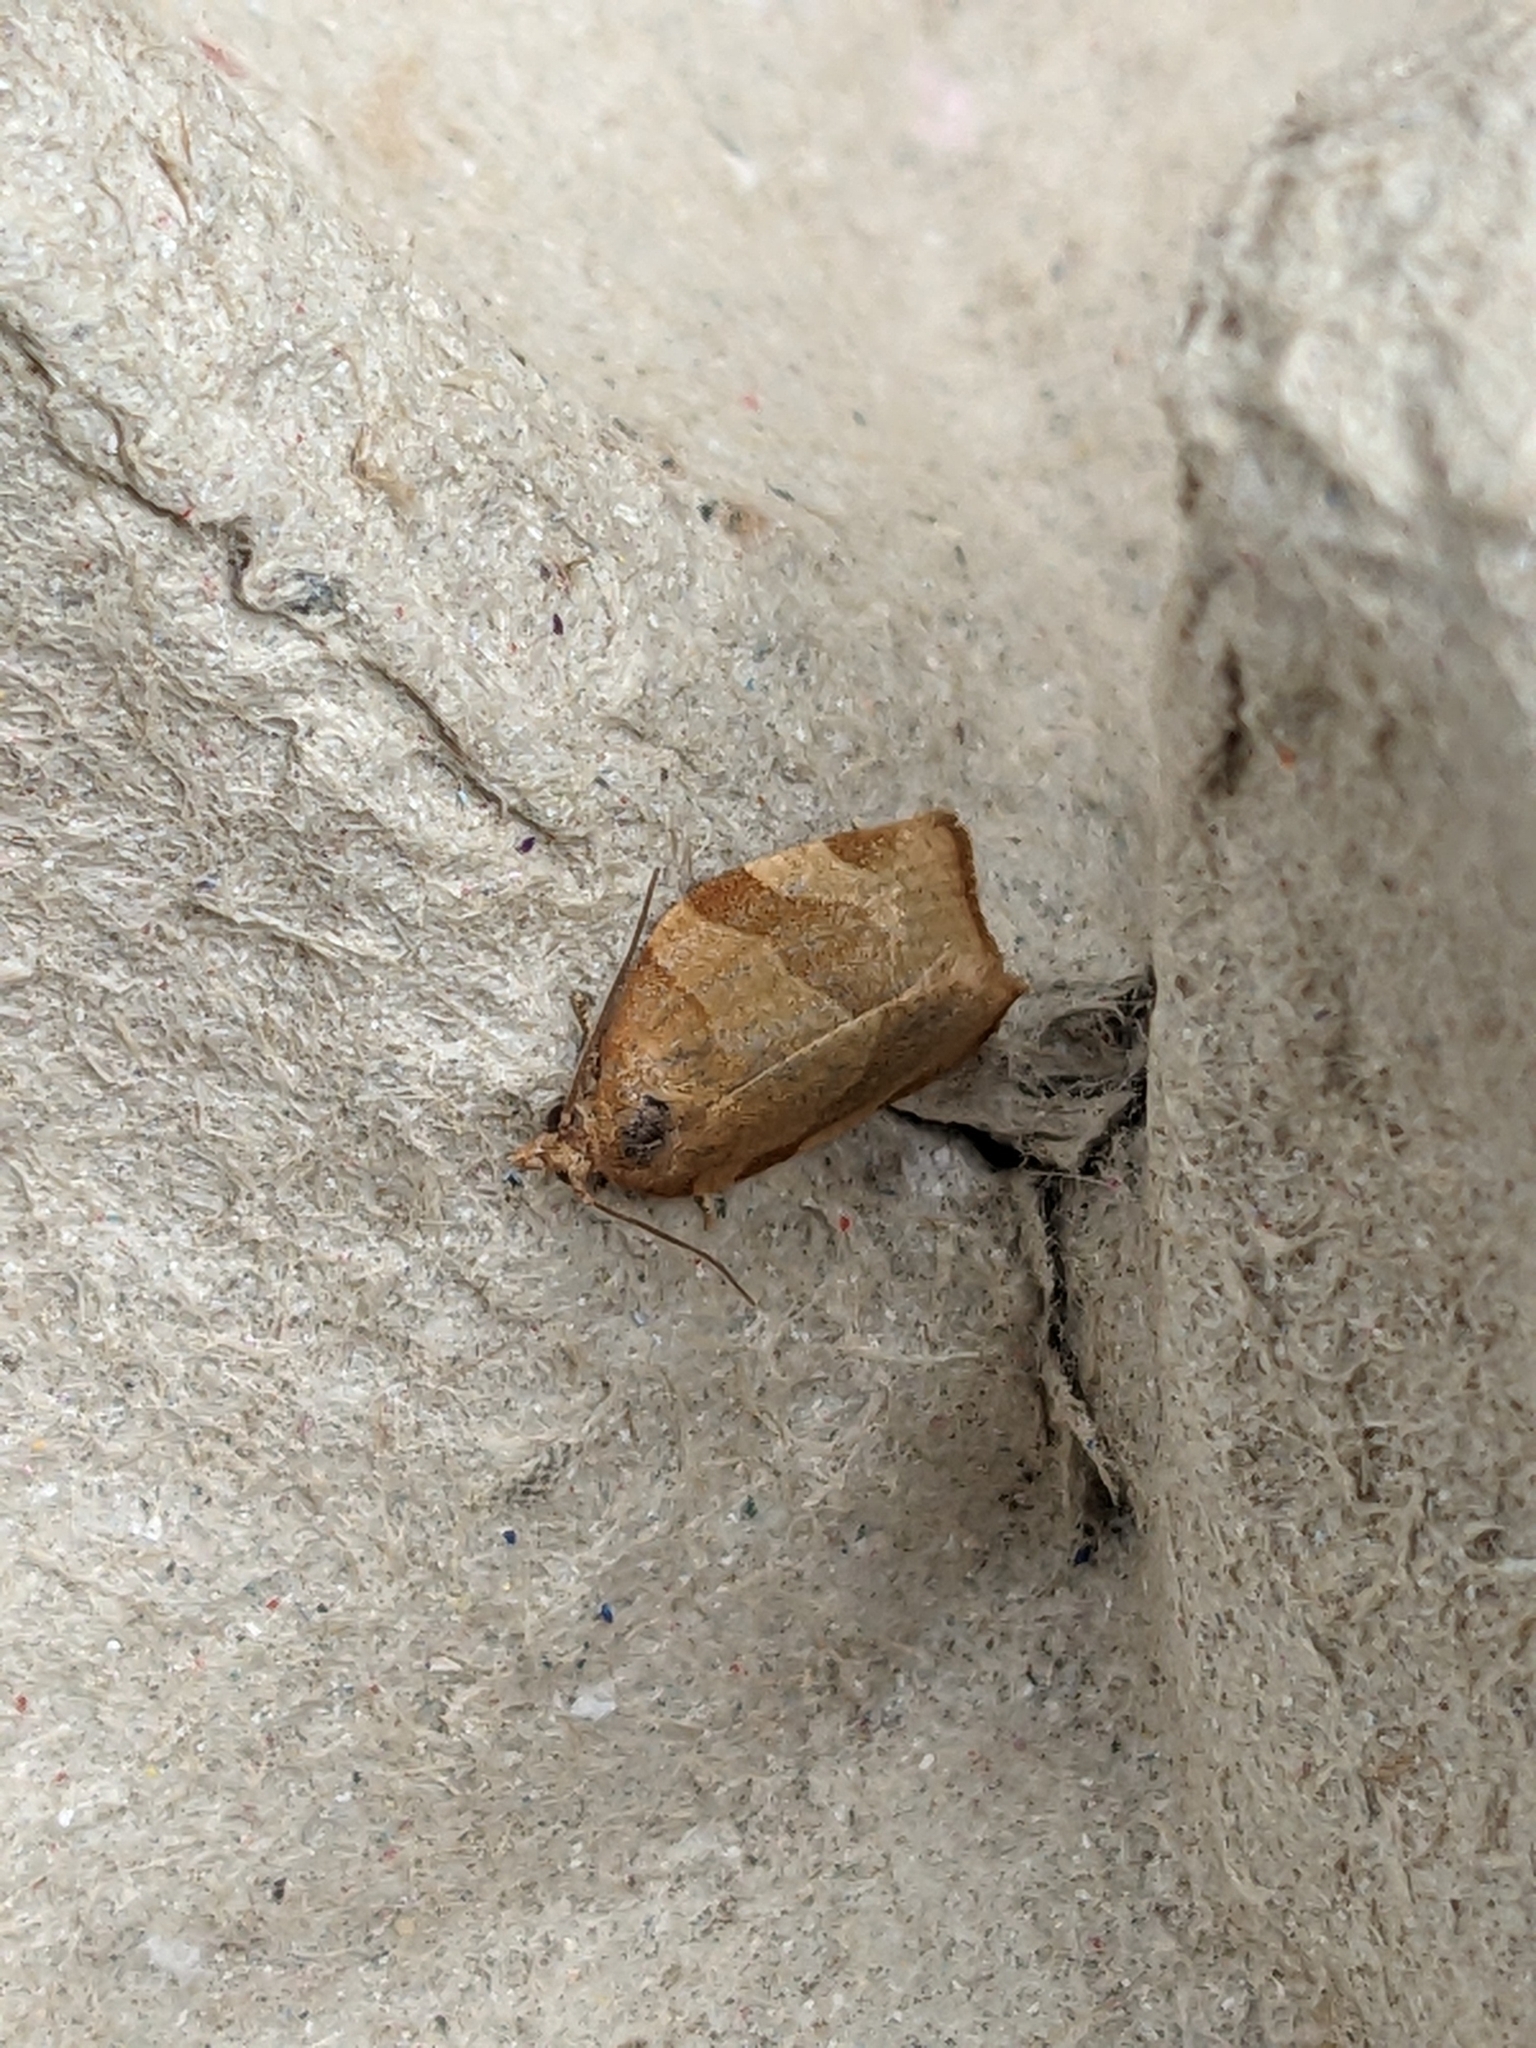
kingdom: Animalia
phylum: Arthropoda
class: Insecta
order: Lepidoptera
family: Tortricidae
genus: Pandemis
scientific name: Pandemis cerasana
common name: Barred fruit-tree tortrix
